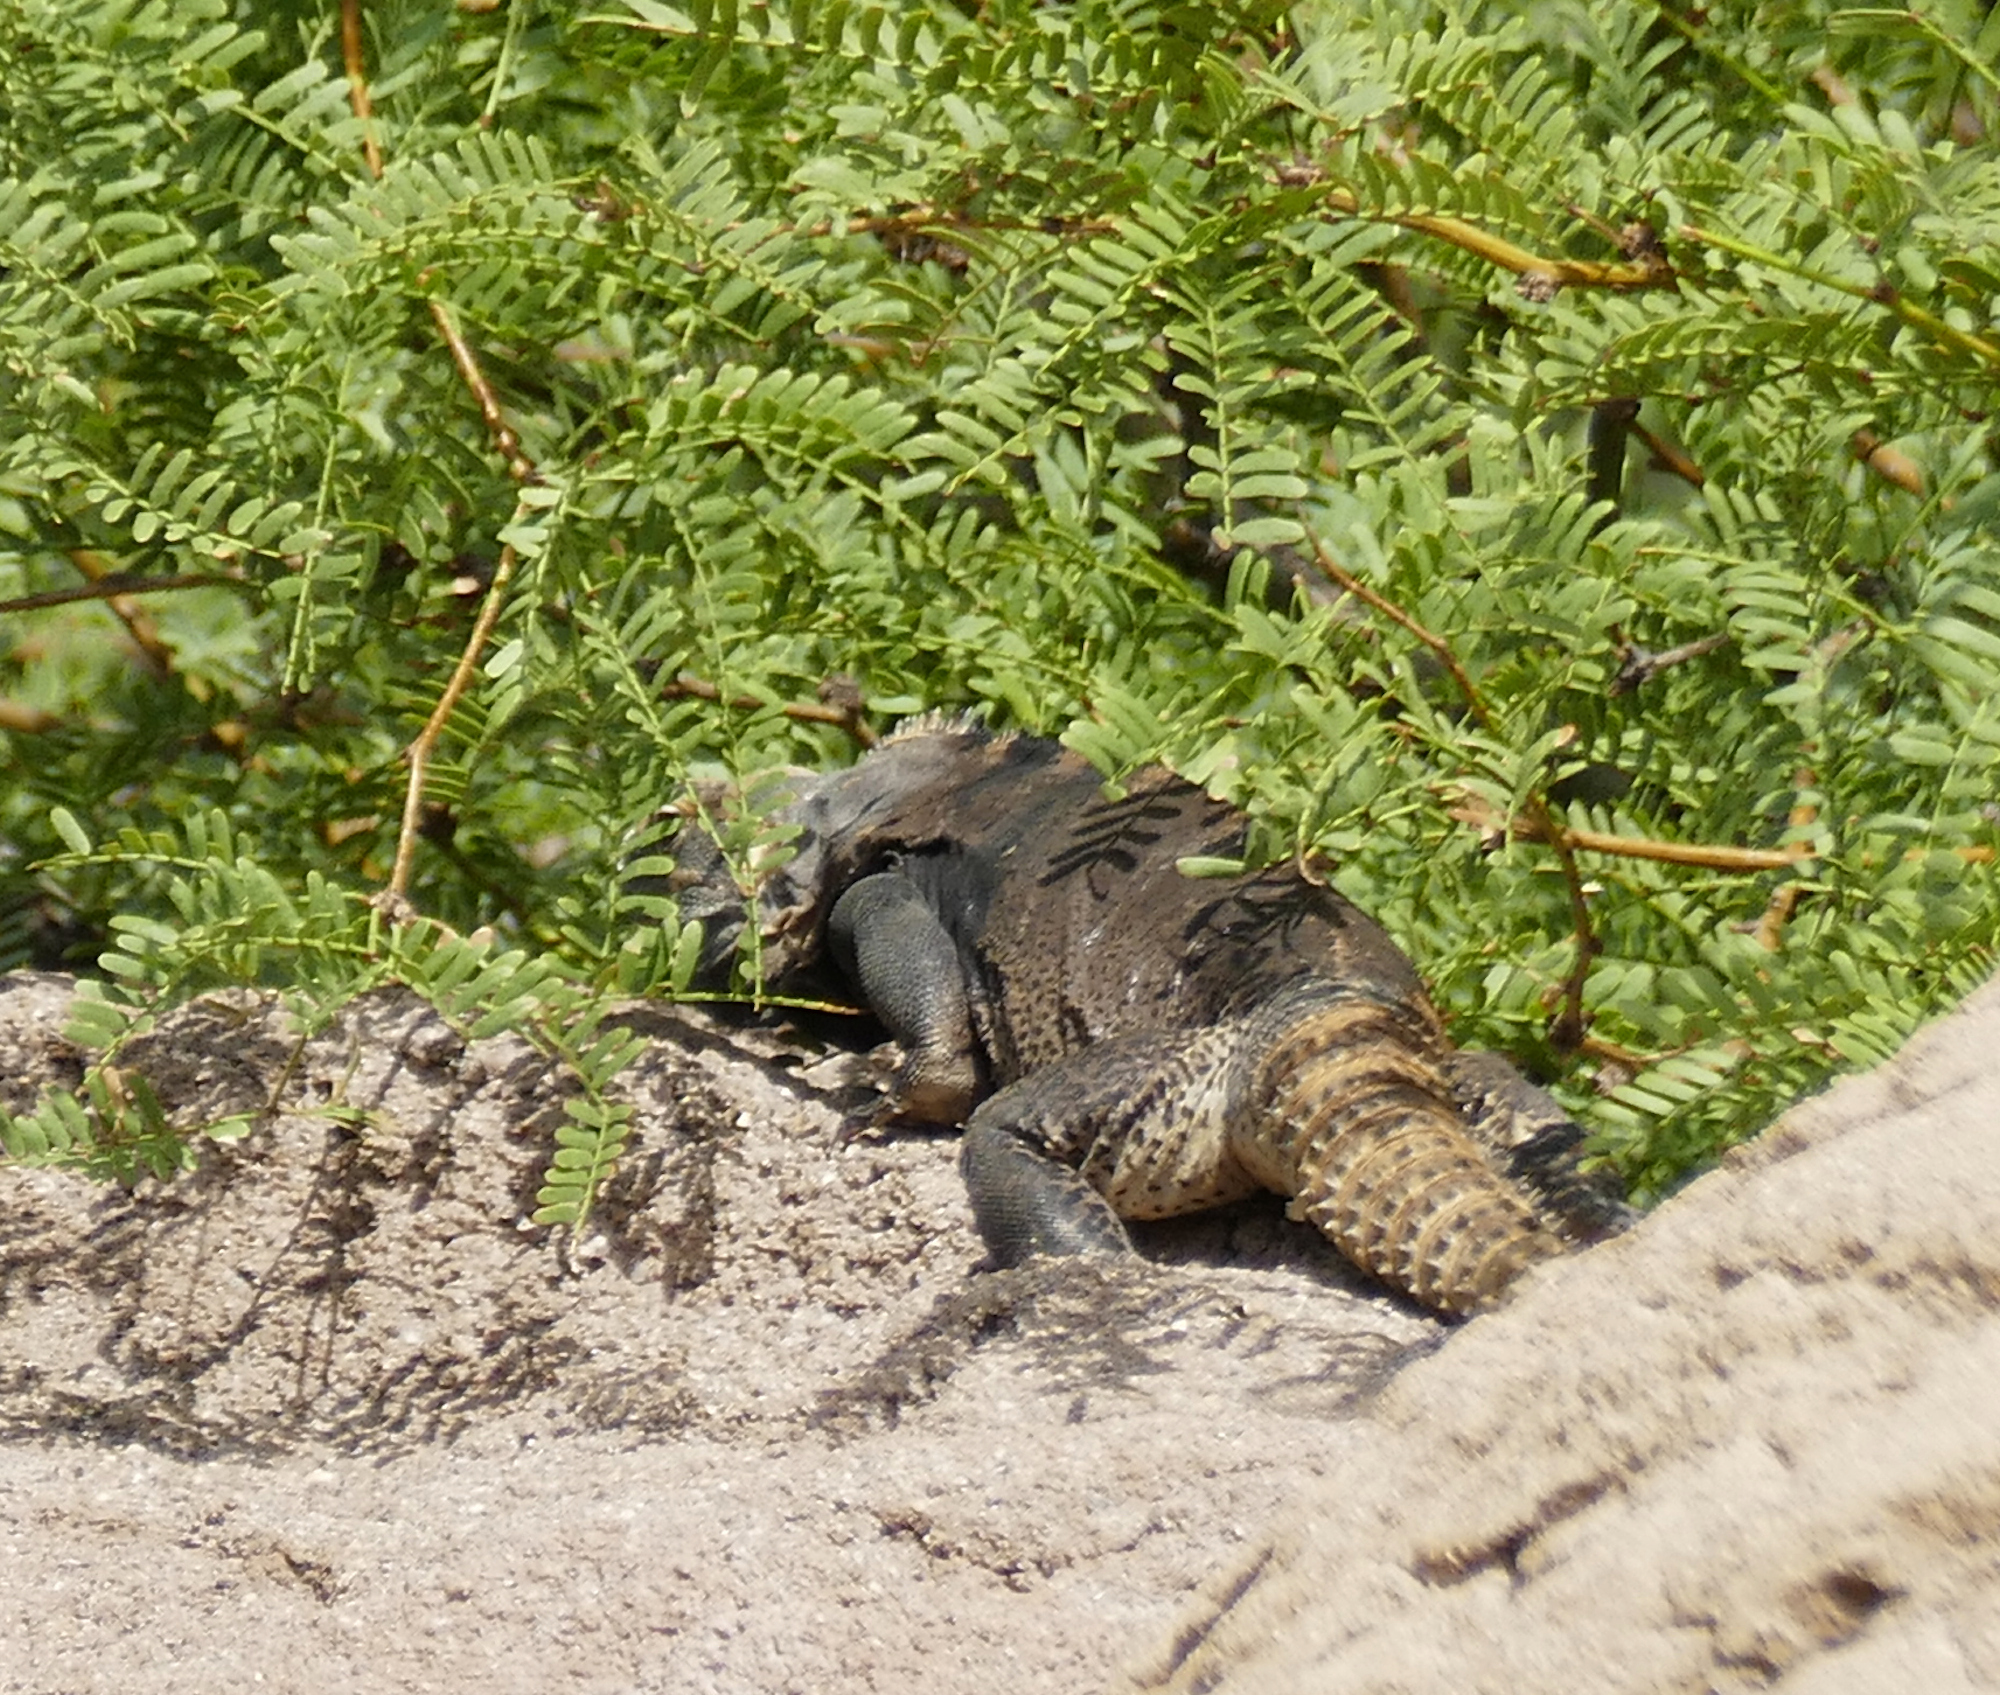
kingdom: Animalia
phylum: Chordata
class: Squamata
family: Iguanidae
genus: Ctenosaura
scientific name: Ctenosaura
